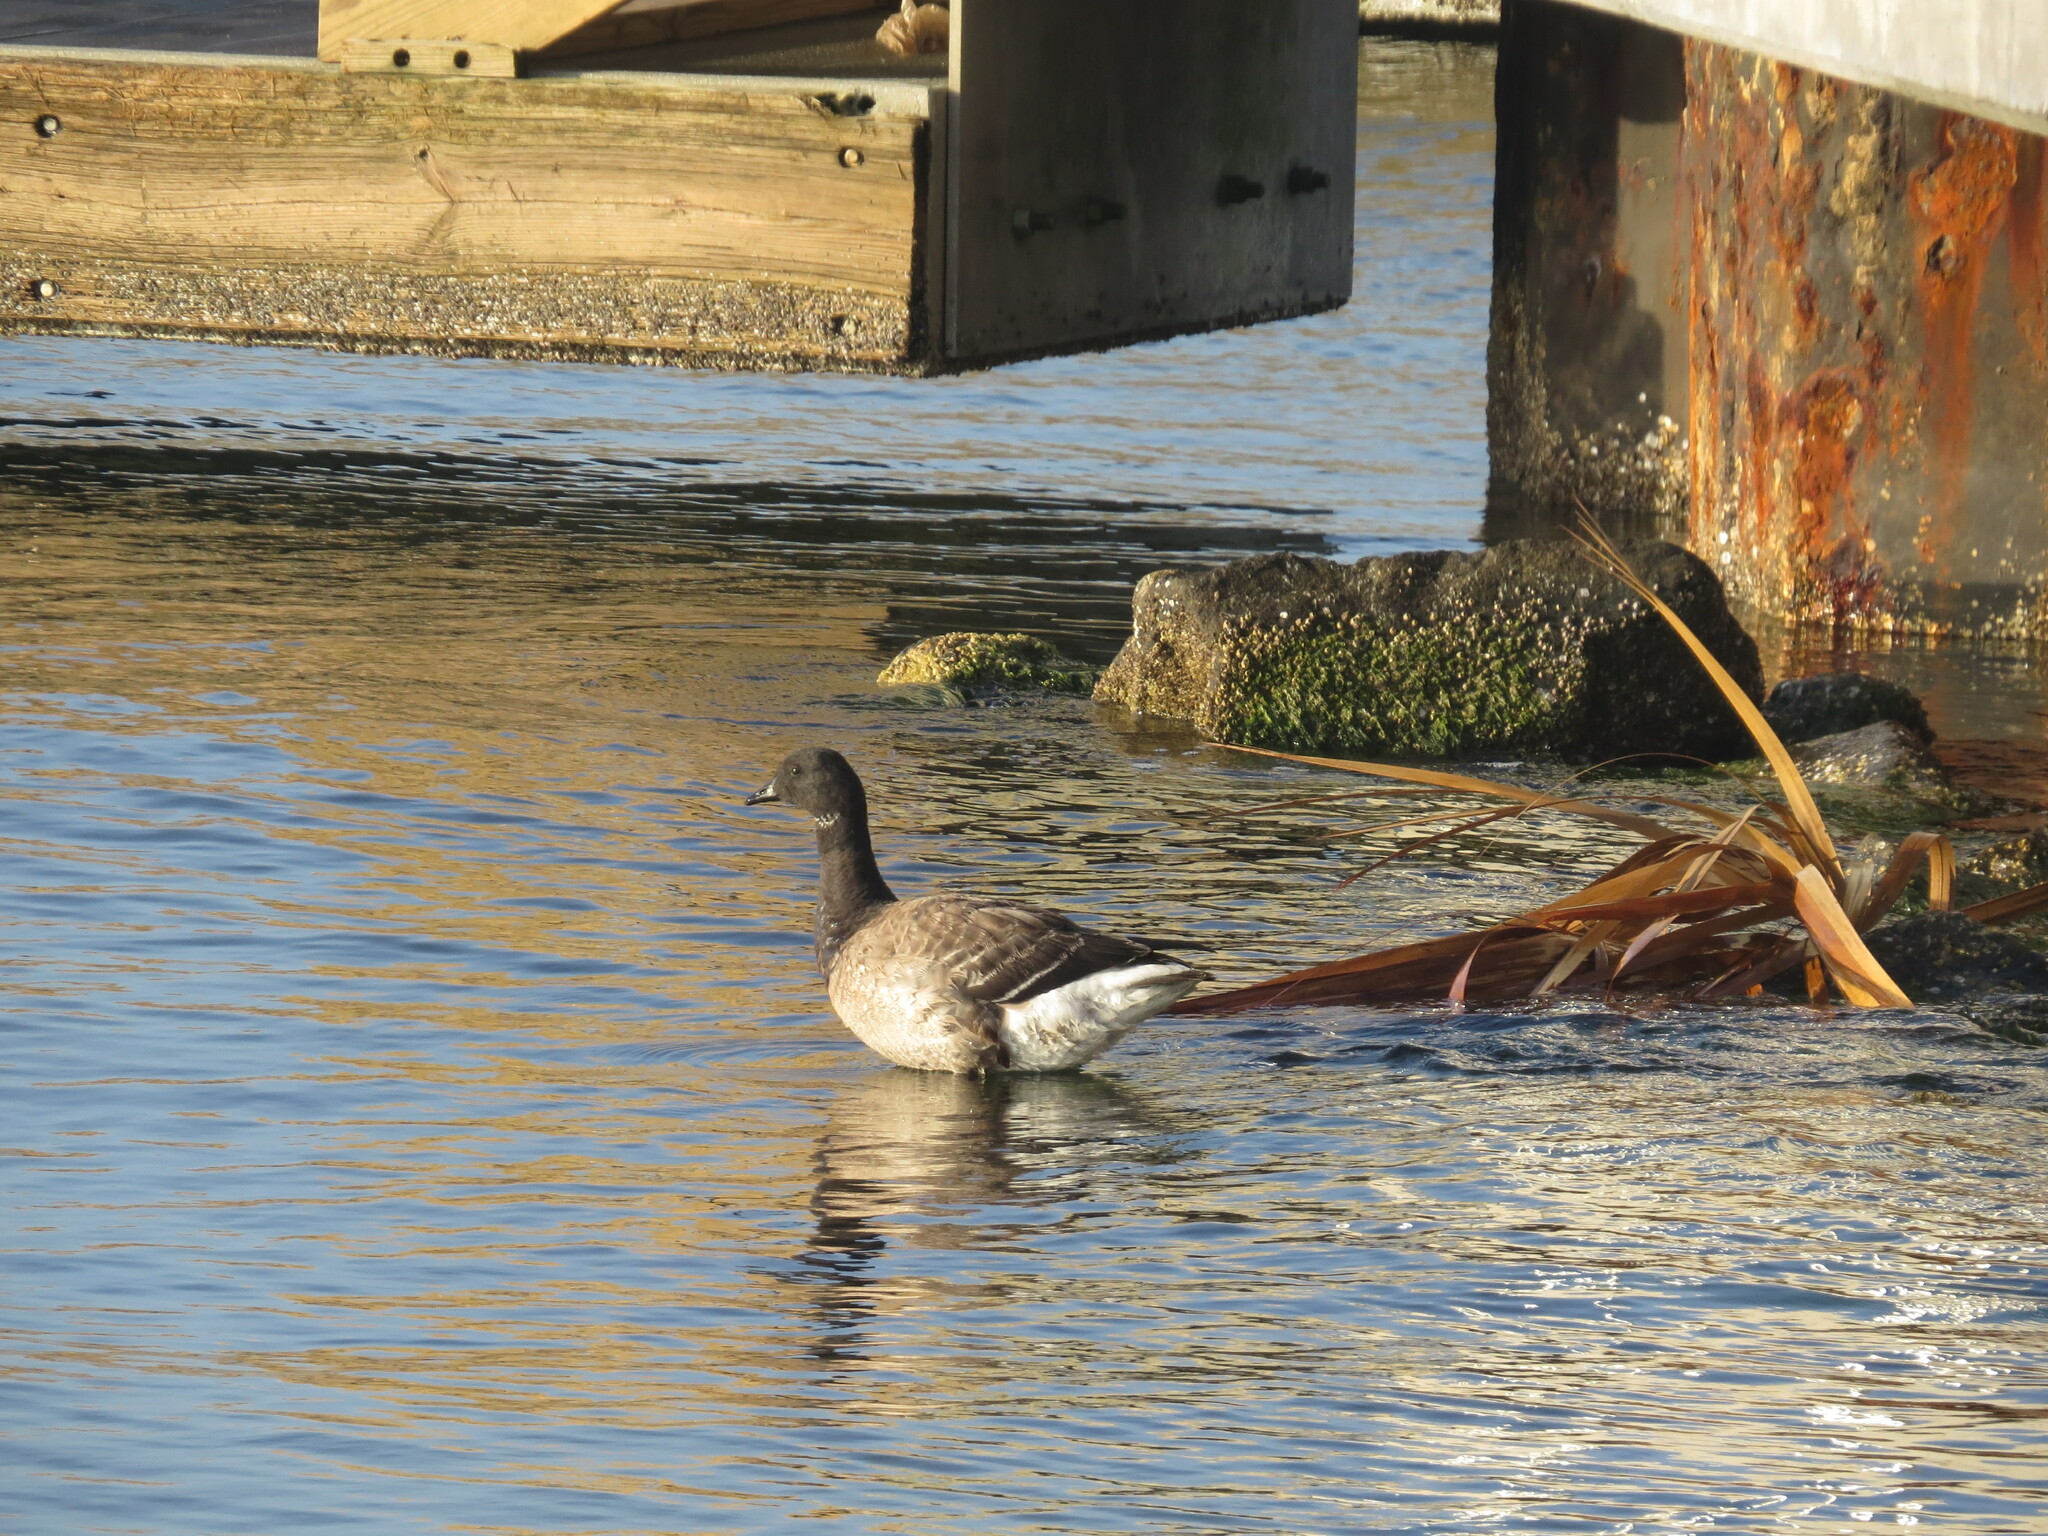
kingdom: Animalia
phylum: Chordata
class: Aves
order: Anseriformes
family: Anatidae
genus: Branta
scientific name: Branta bernicla
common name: Brant goose
